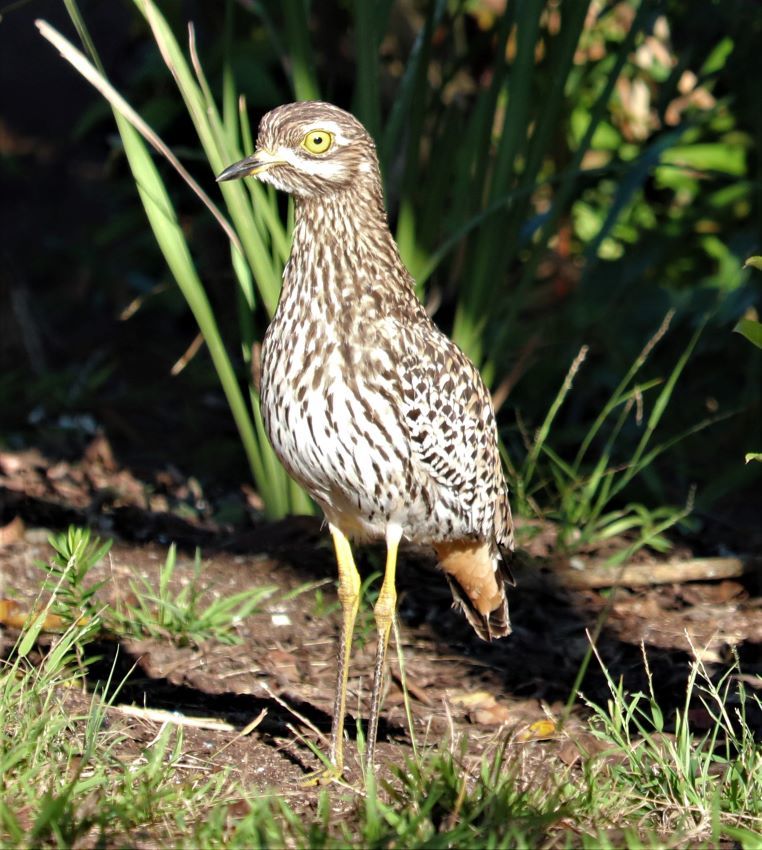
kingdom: Animalia
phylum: Chordata
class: Aves
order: Charadriiformes
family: Burhinidae
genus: Burhinus
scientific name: Burhinus capensis
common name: Spotted thick-knee
